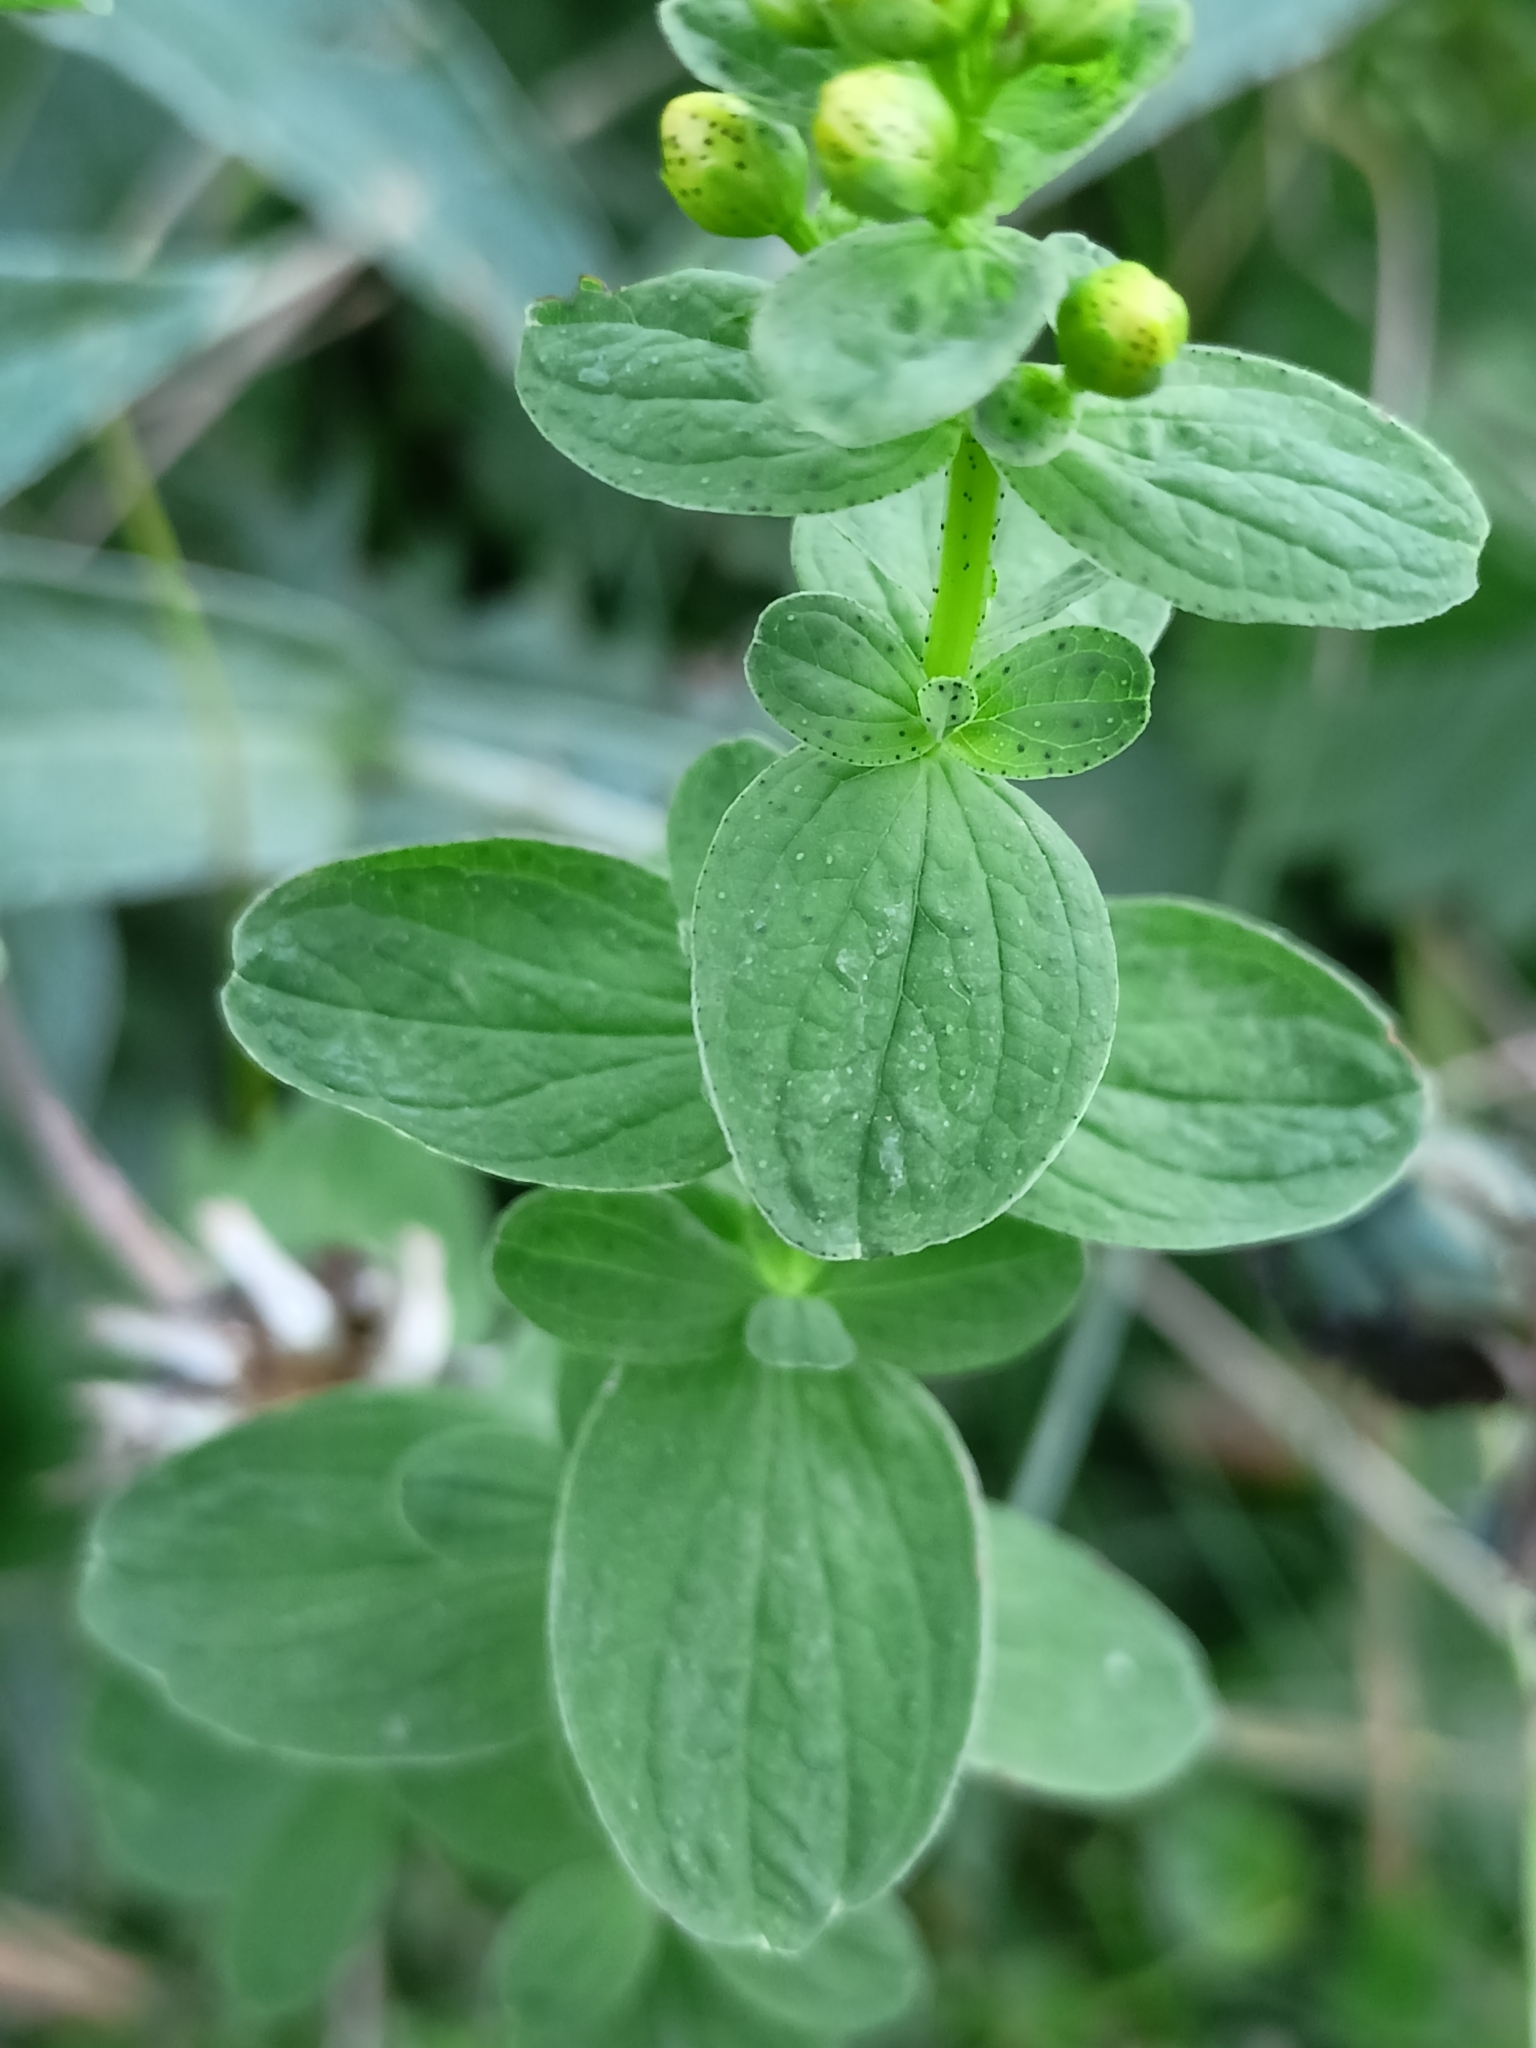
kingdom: Plantae
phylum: Tracheophyta
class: Magnoliopsida
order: Malpighiales
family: Hypericaceae
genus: Hypericum
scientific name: Hypericum maculatum
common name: Imperforate st. john's-wort
